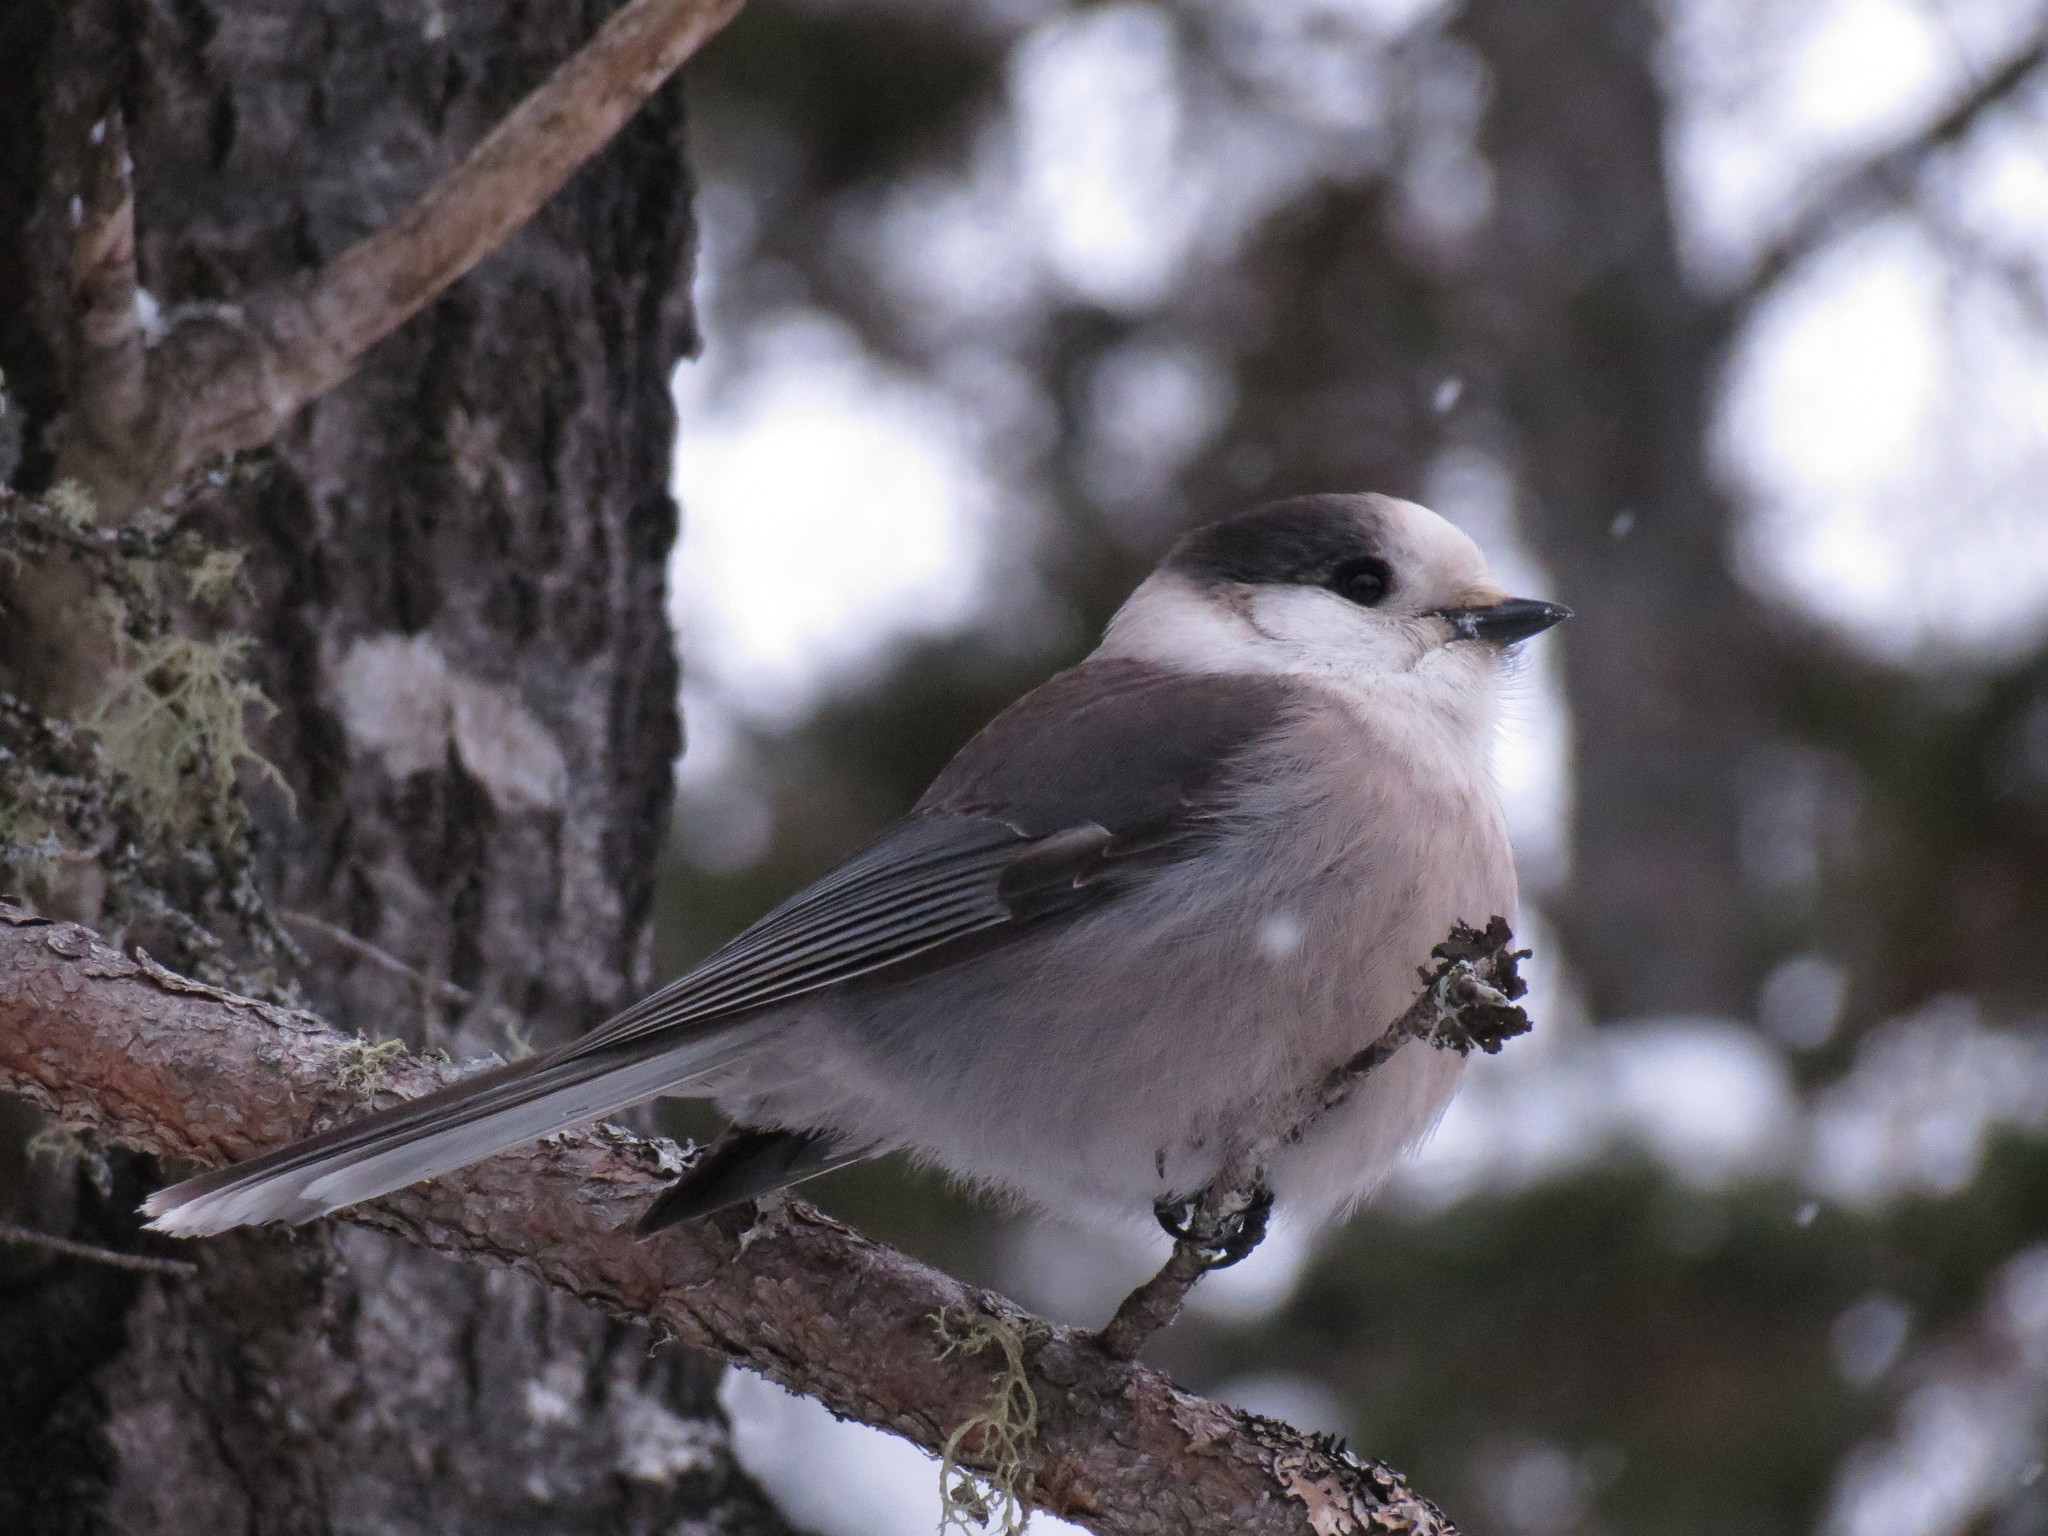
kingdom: Animalia
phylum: Chordata
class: Aves
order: Passeriformes
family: Corvidae
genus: Perisoreus
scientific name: Perisoreus canadensis
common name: Gray jay
